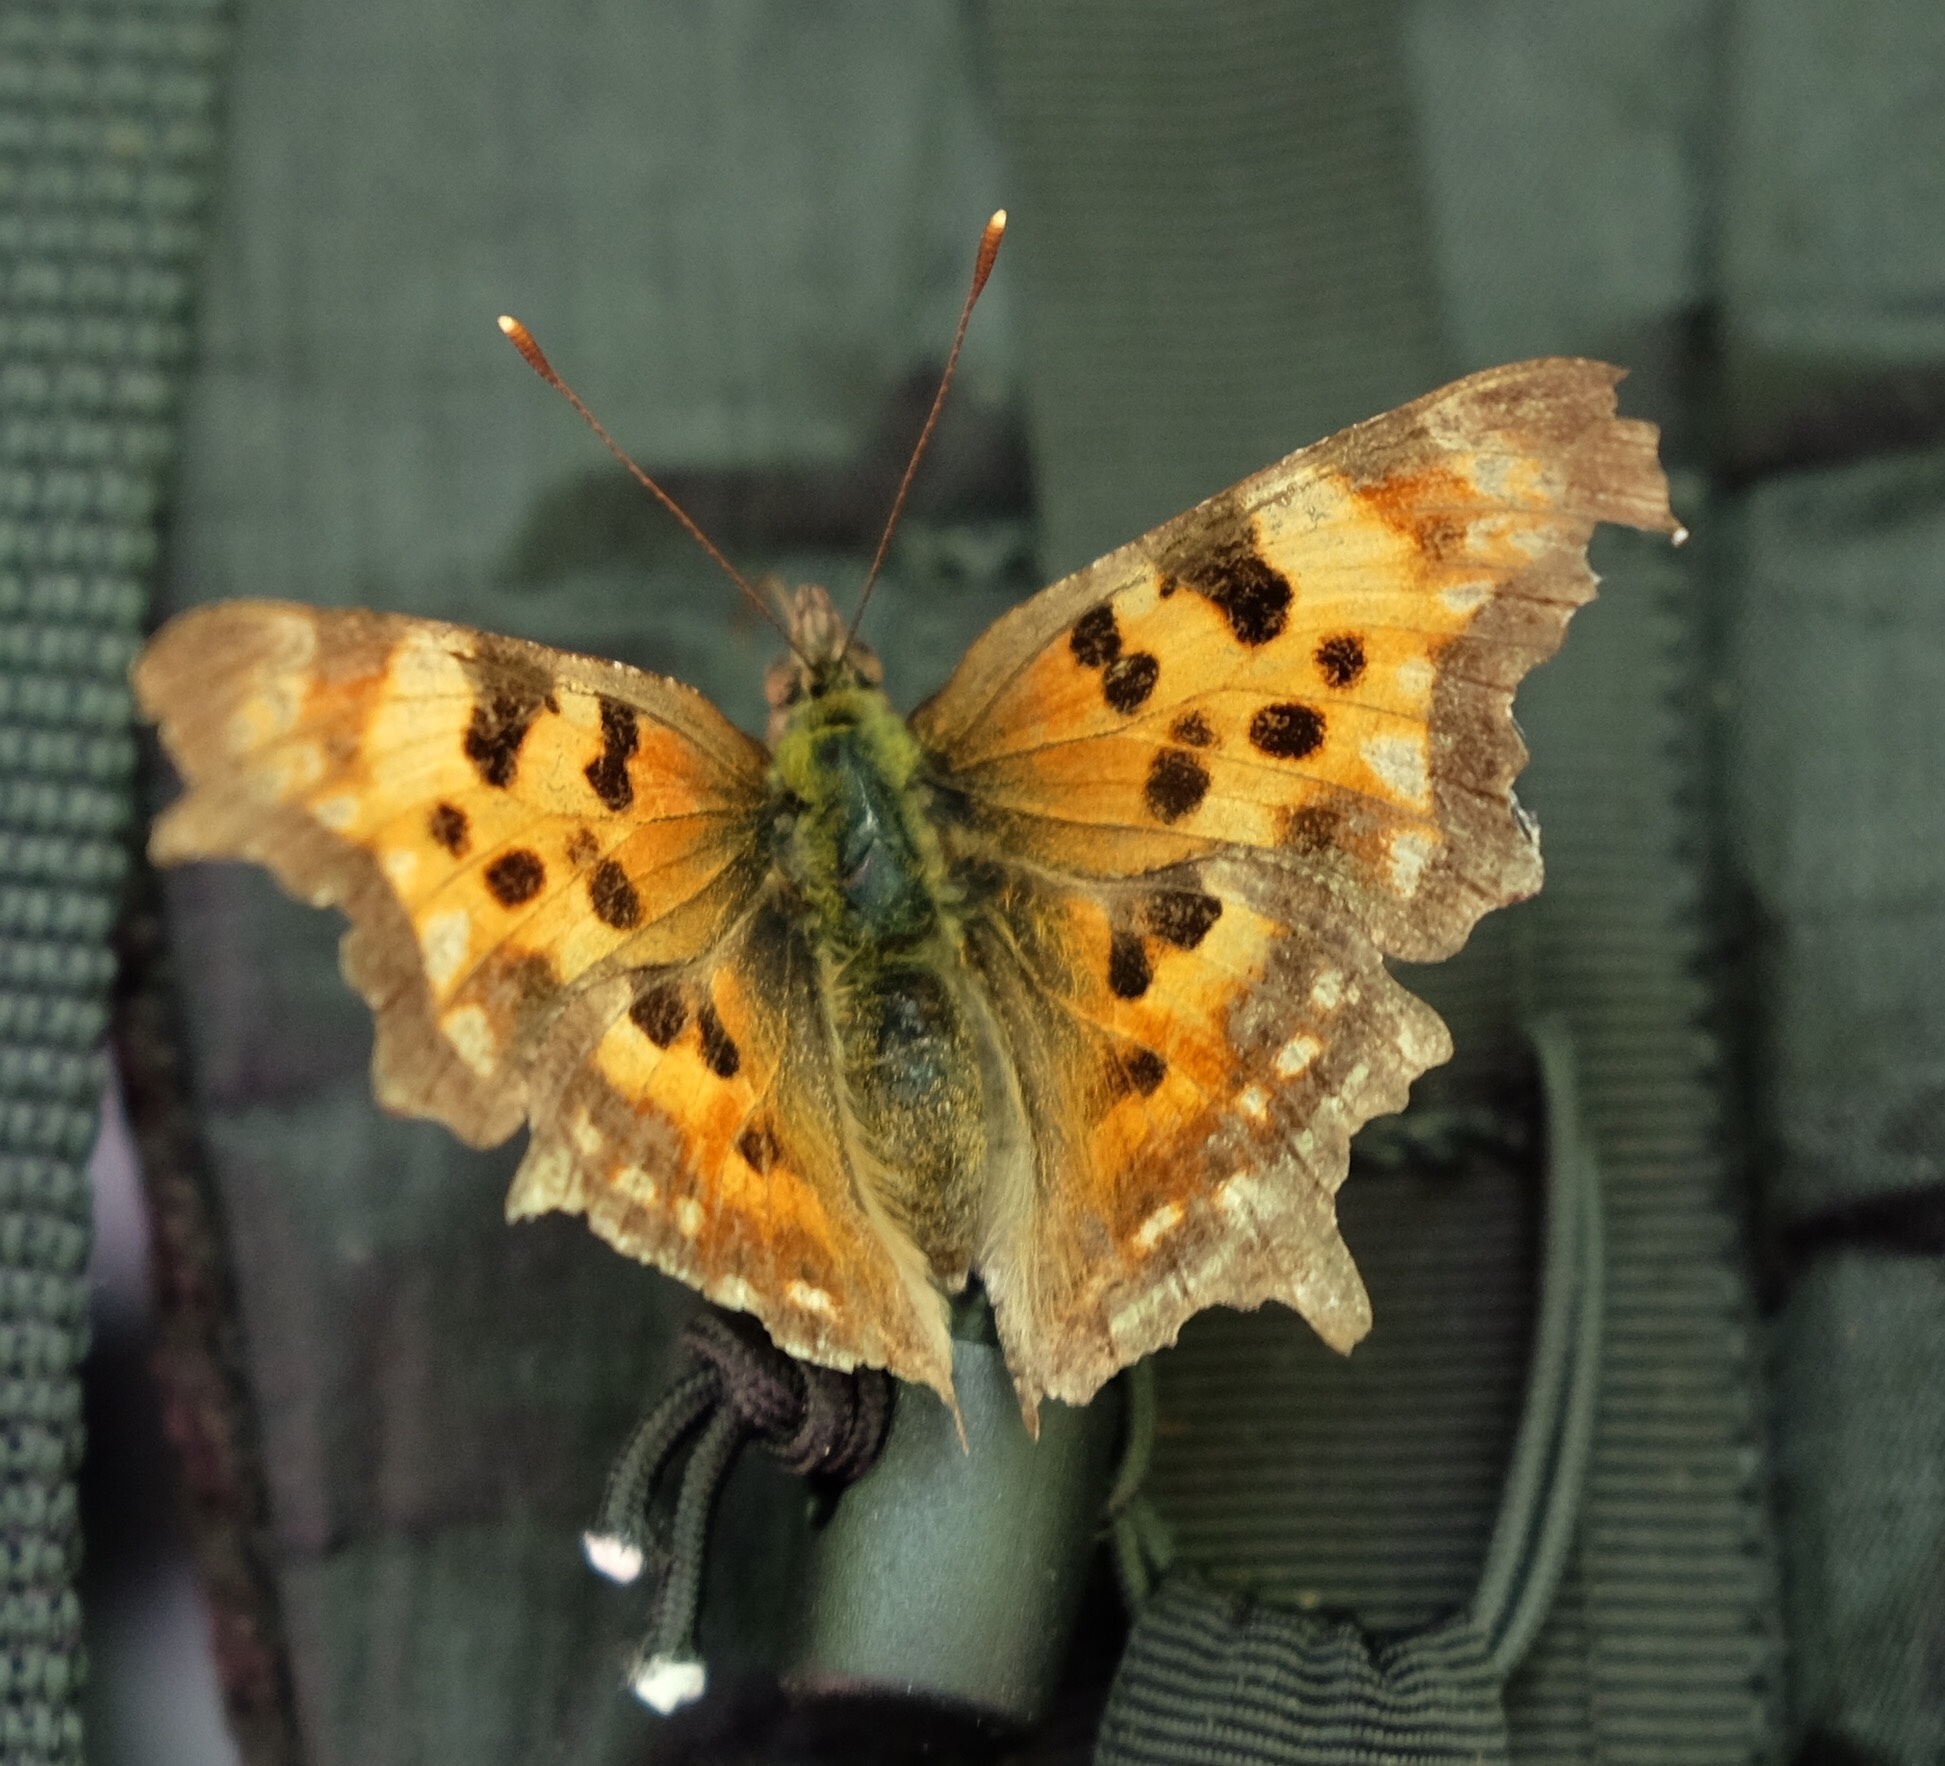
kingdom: Animalia
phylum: Arthropoda
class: Insecta
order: Lepidoptera
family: Nymphalidae
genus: Polygonia
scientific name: Polygonia faunus
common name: Green comma
